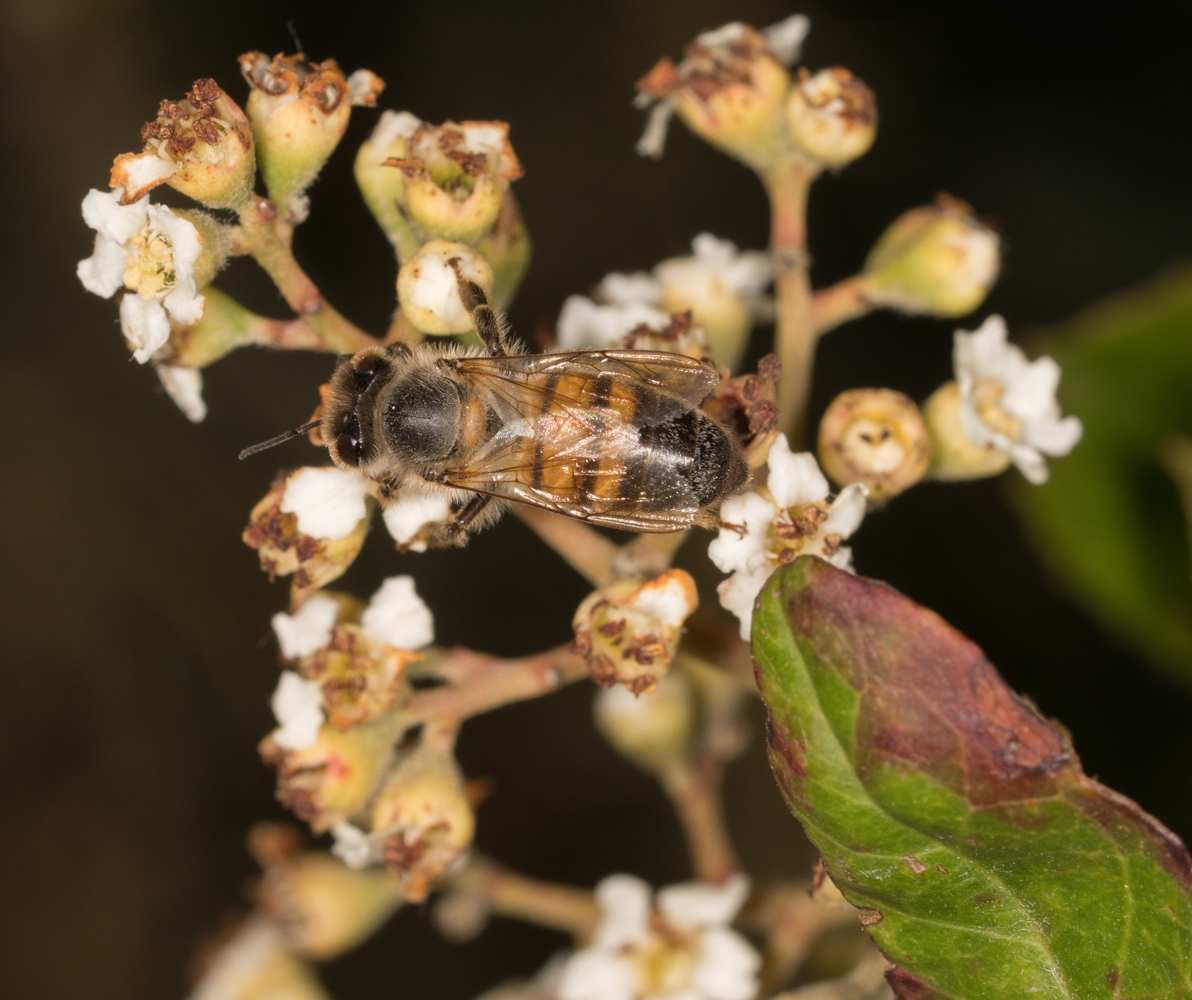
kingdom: Animalia
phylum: Arthropoda
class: Insecta
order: Hymenoptera
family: Apidae
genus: Apis
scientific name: Apis mellifera
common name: Honey bee
